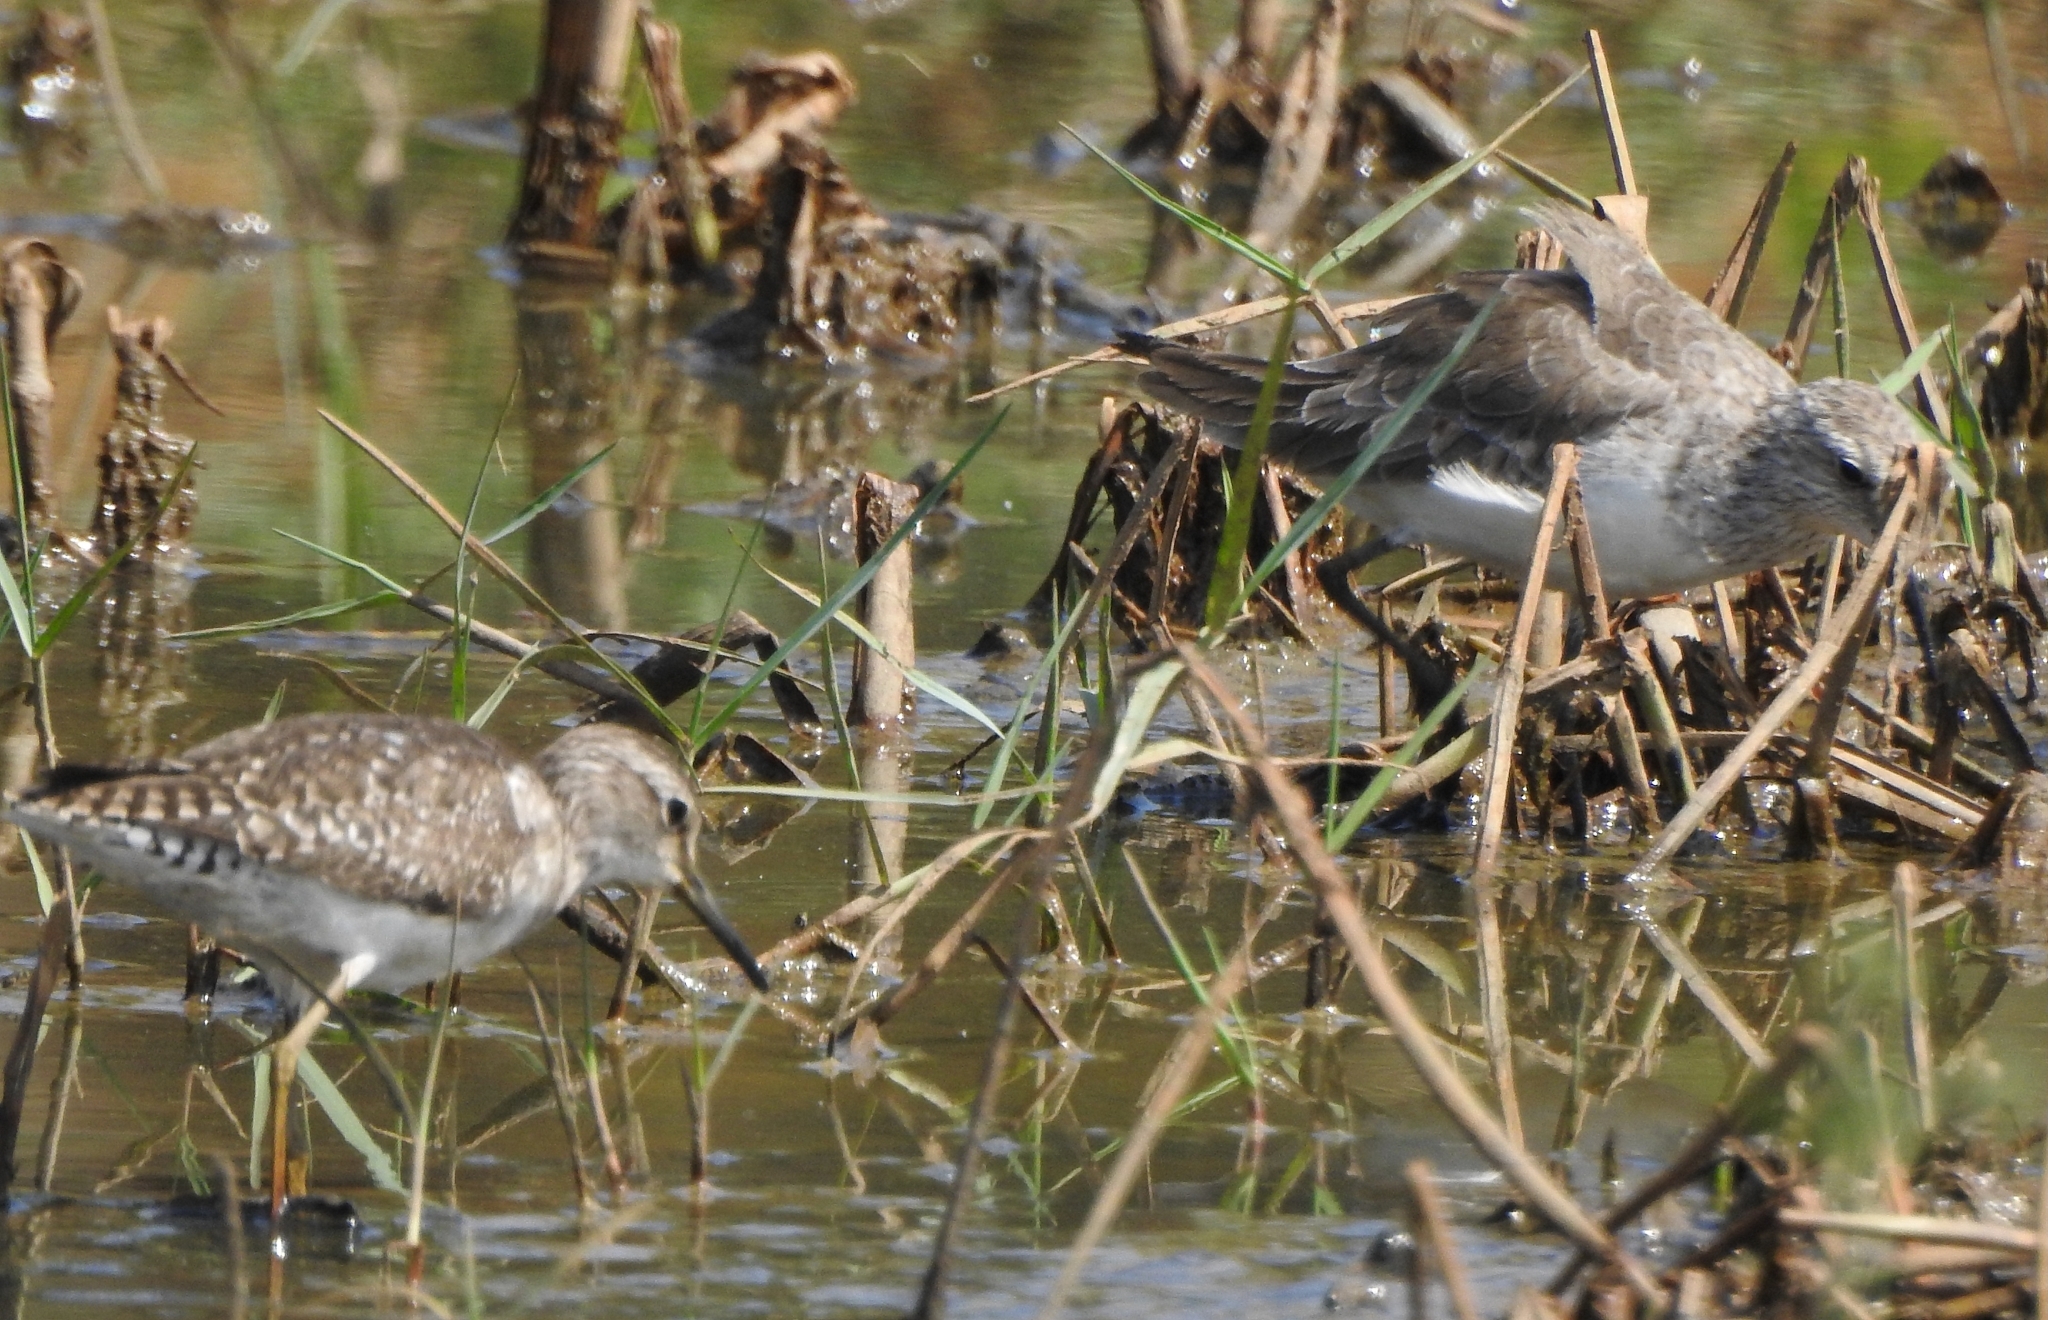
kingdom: Animalia
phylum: Chordata
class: Aves
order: Charadriiformes
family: Scolopacidae
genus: Tringa
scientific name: Tringa glareola
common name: Wood sandpiper
